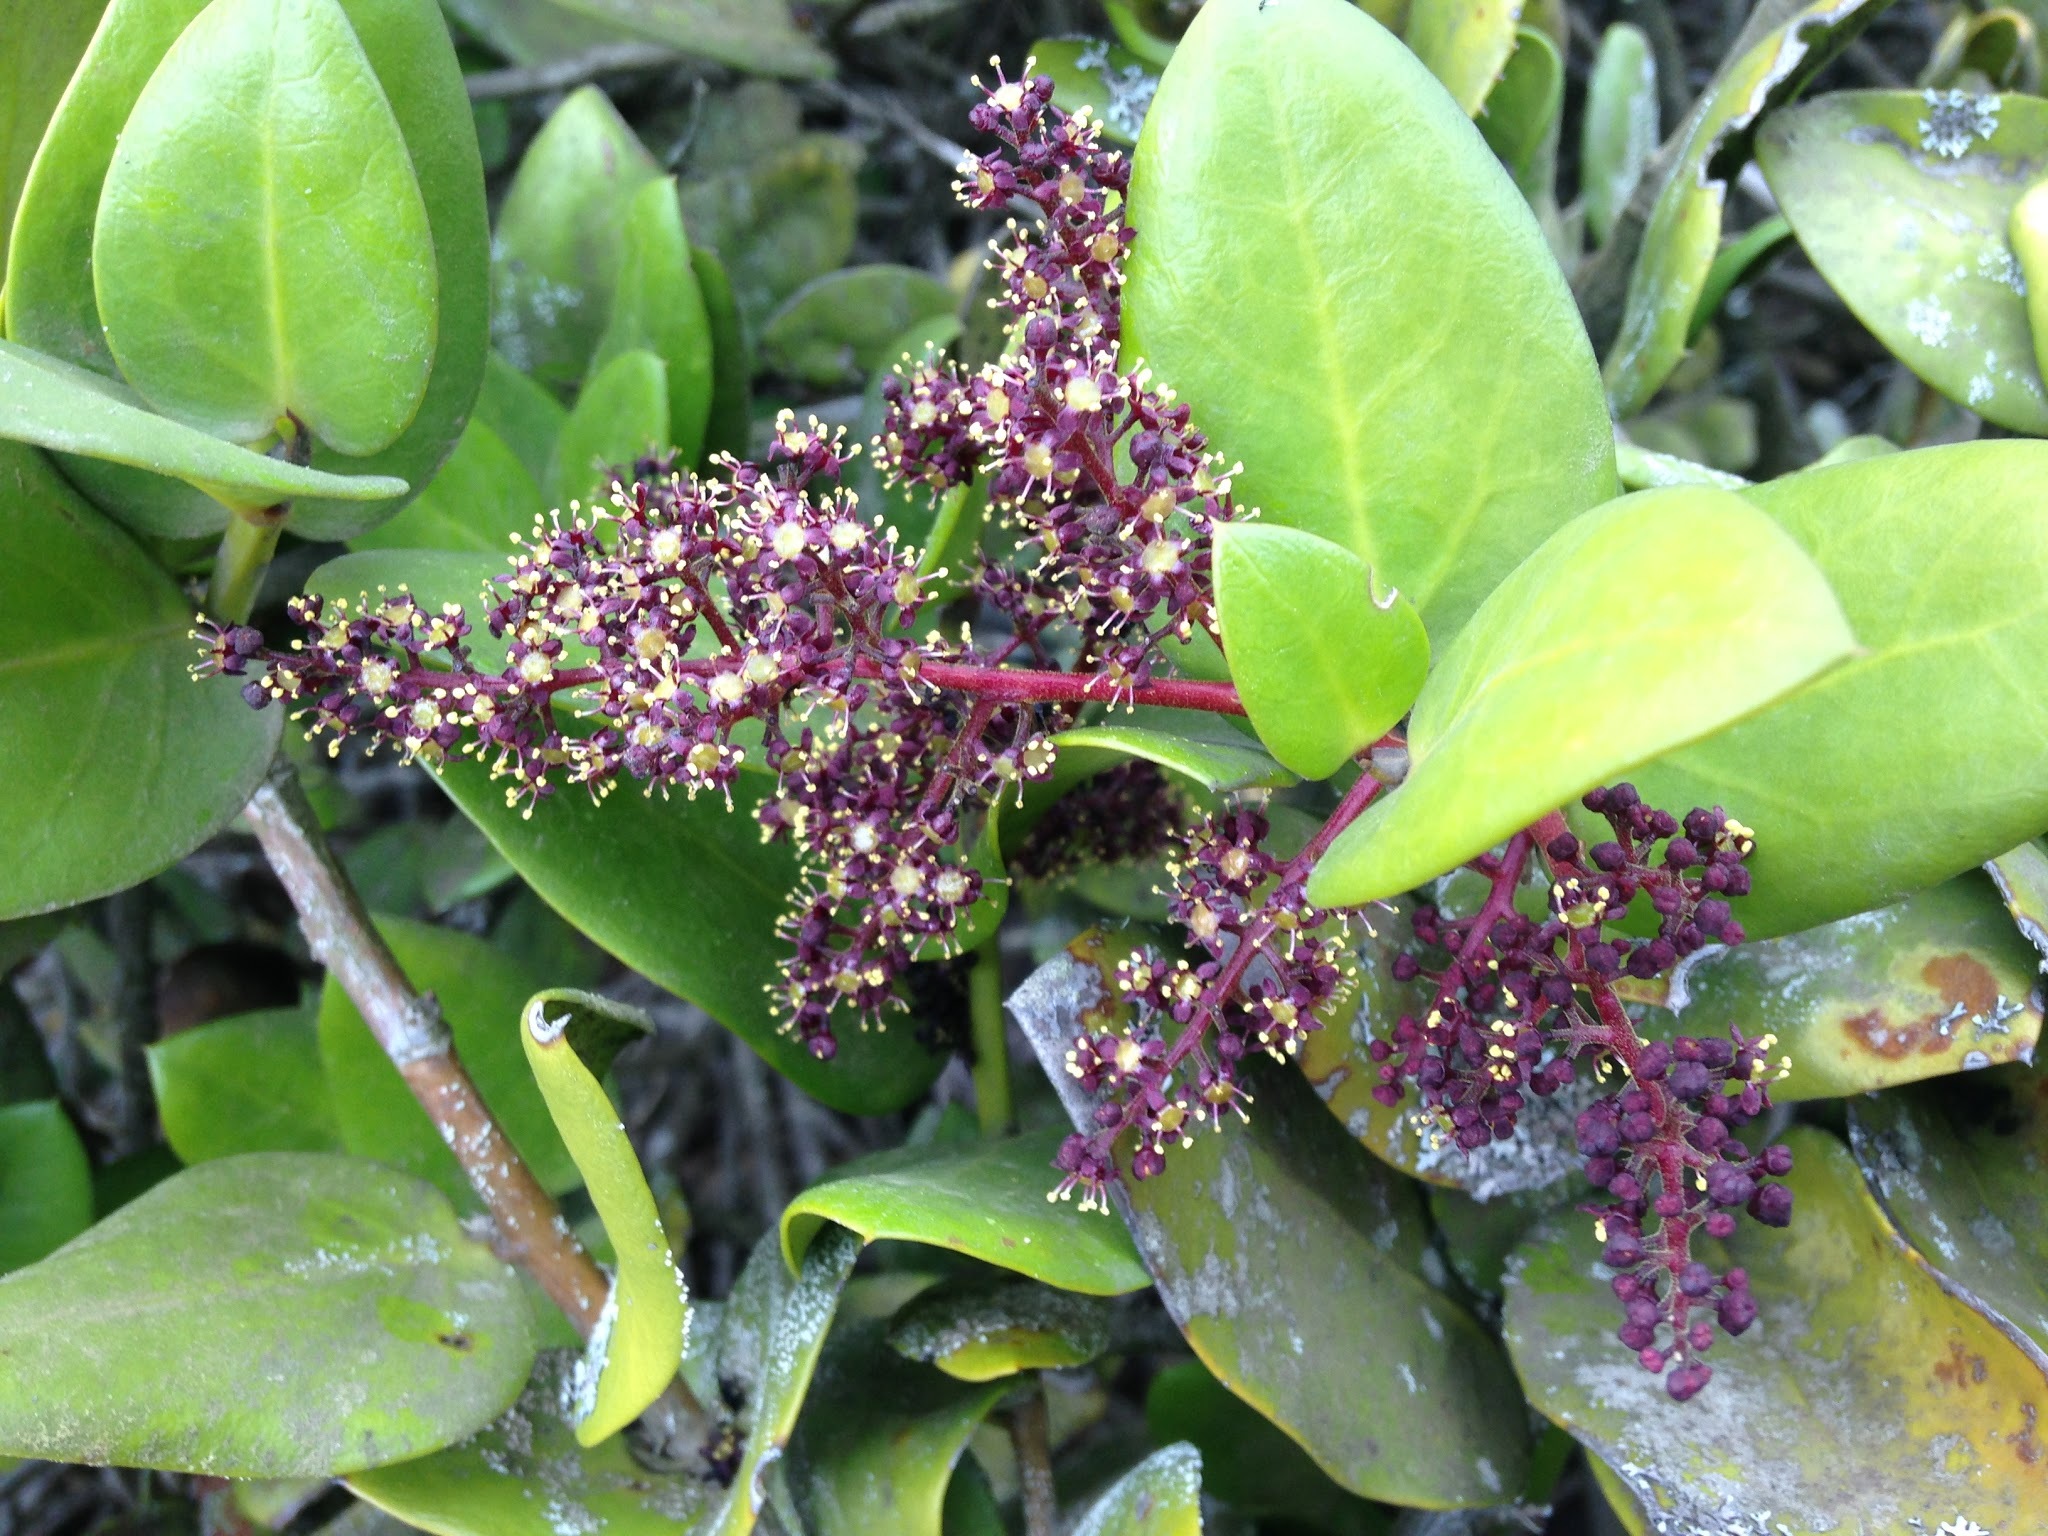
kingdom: Plantae
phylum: Tracheophyta
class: Magnoliopsida
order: Apiales
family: Griseliniaceae
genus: Griselinia
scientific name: Griselinia scandens
